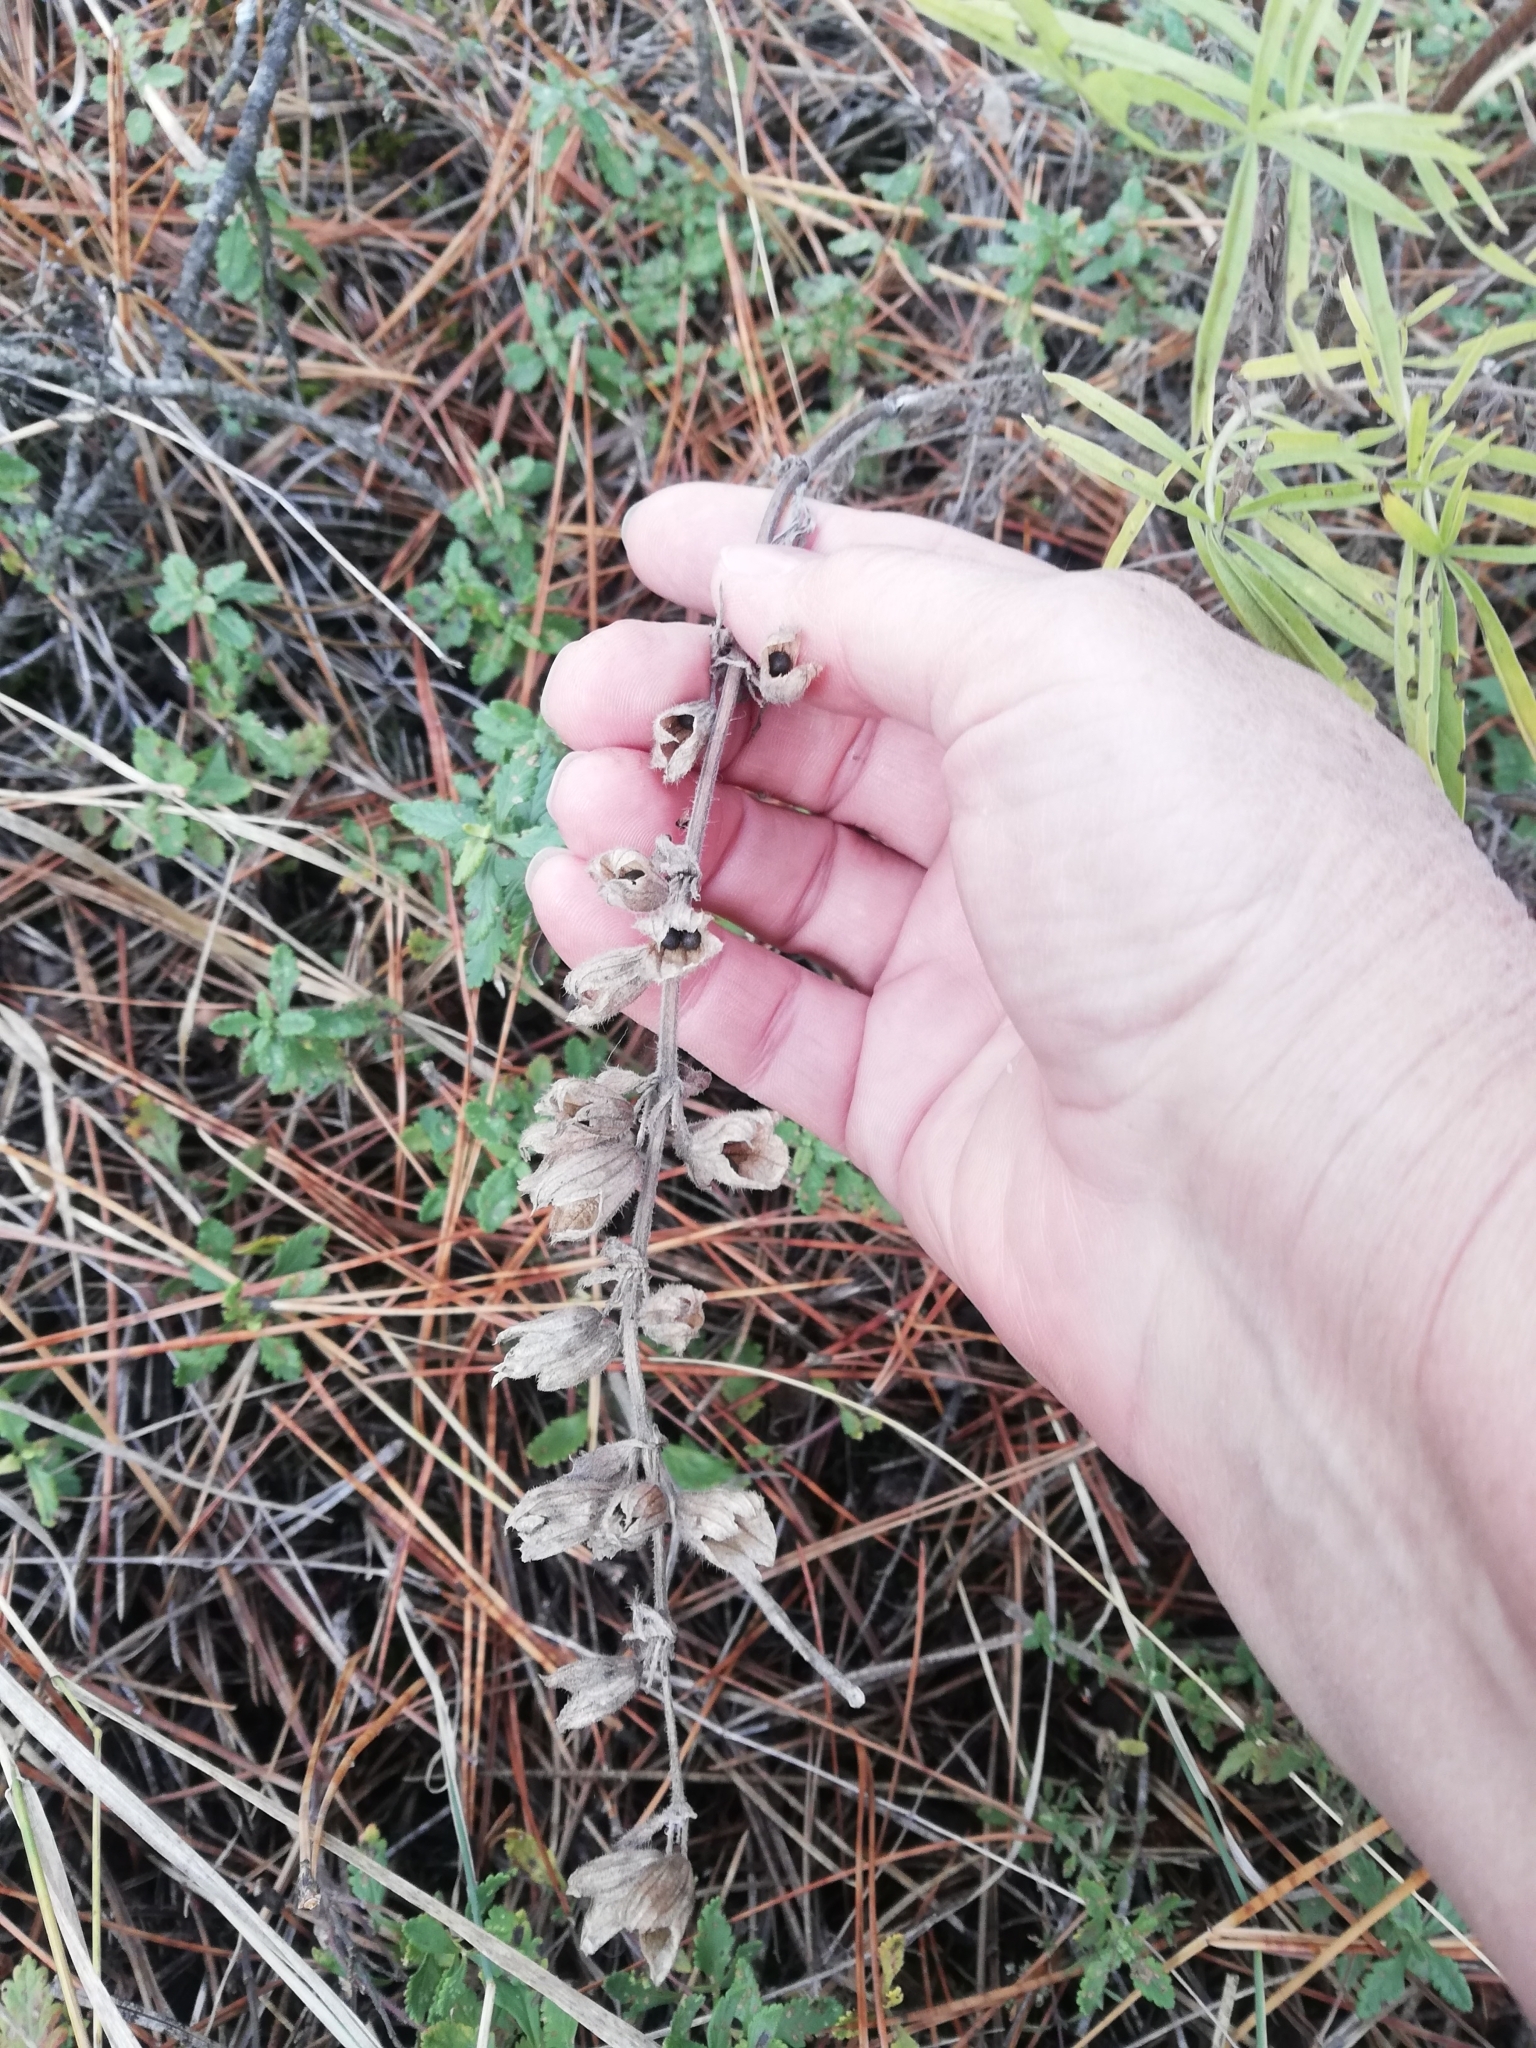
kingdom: Plantae
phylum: Tracheophyta
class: Magnoliopsida
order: Lamiales
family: Lamiaceae
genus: Salvia
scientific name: Salvia scabiosifolia
